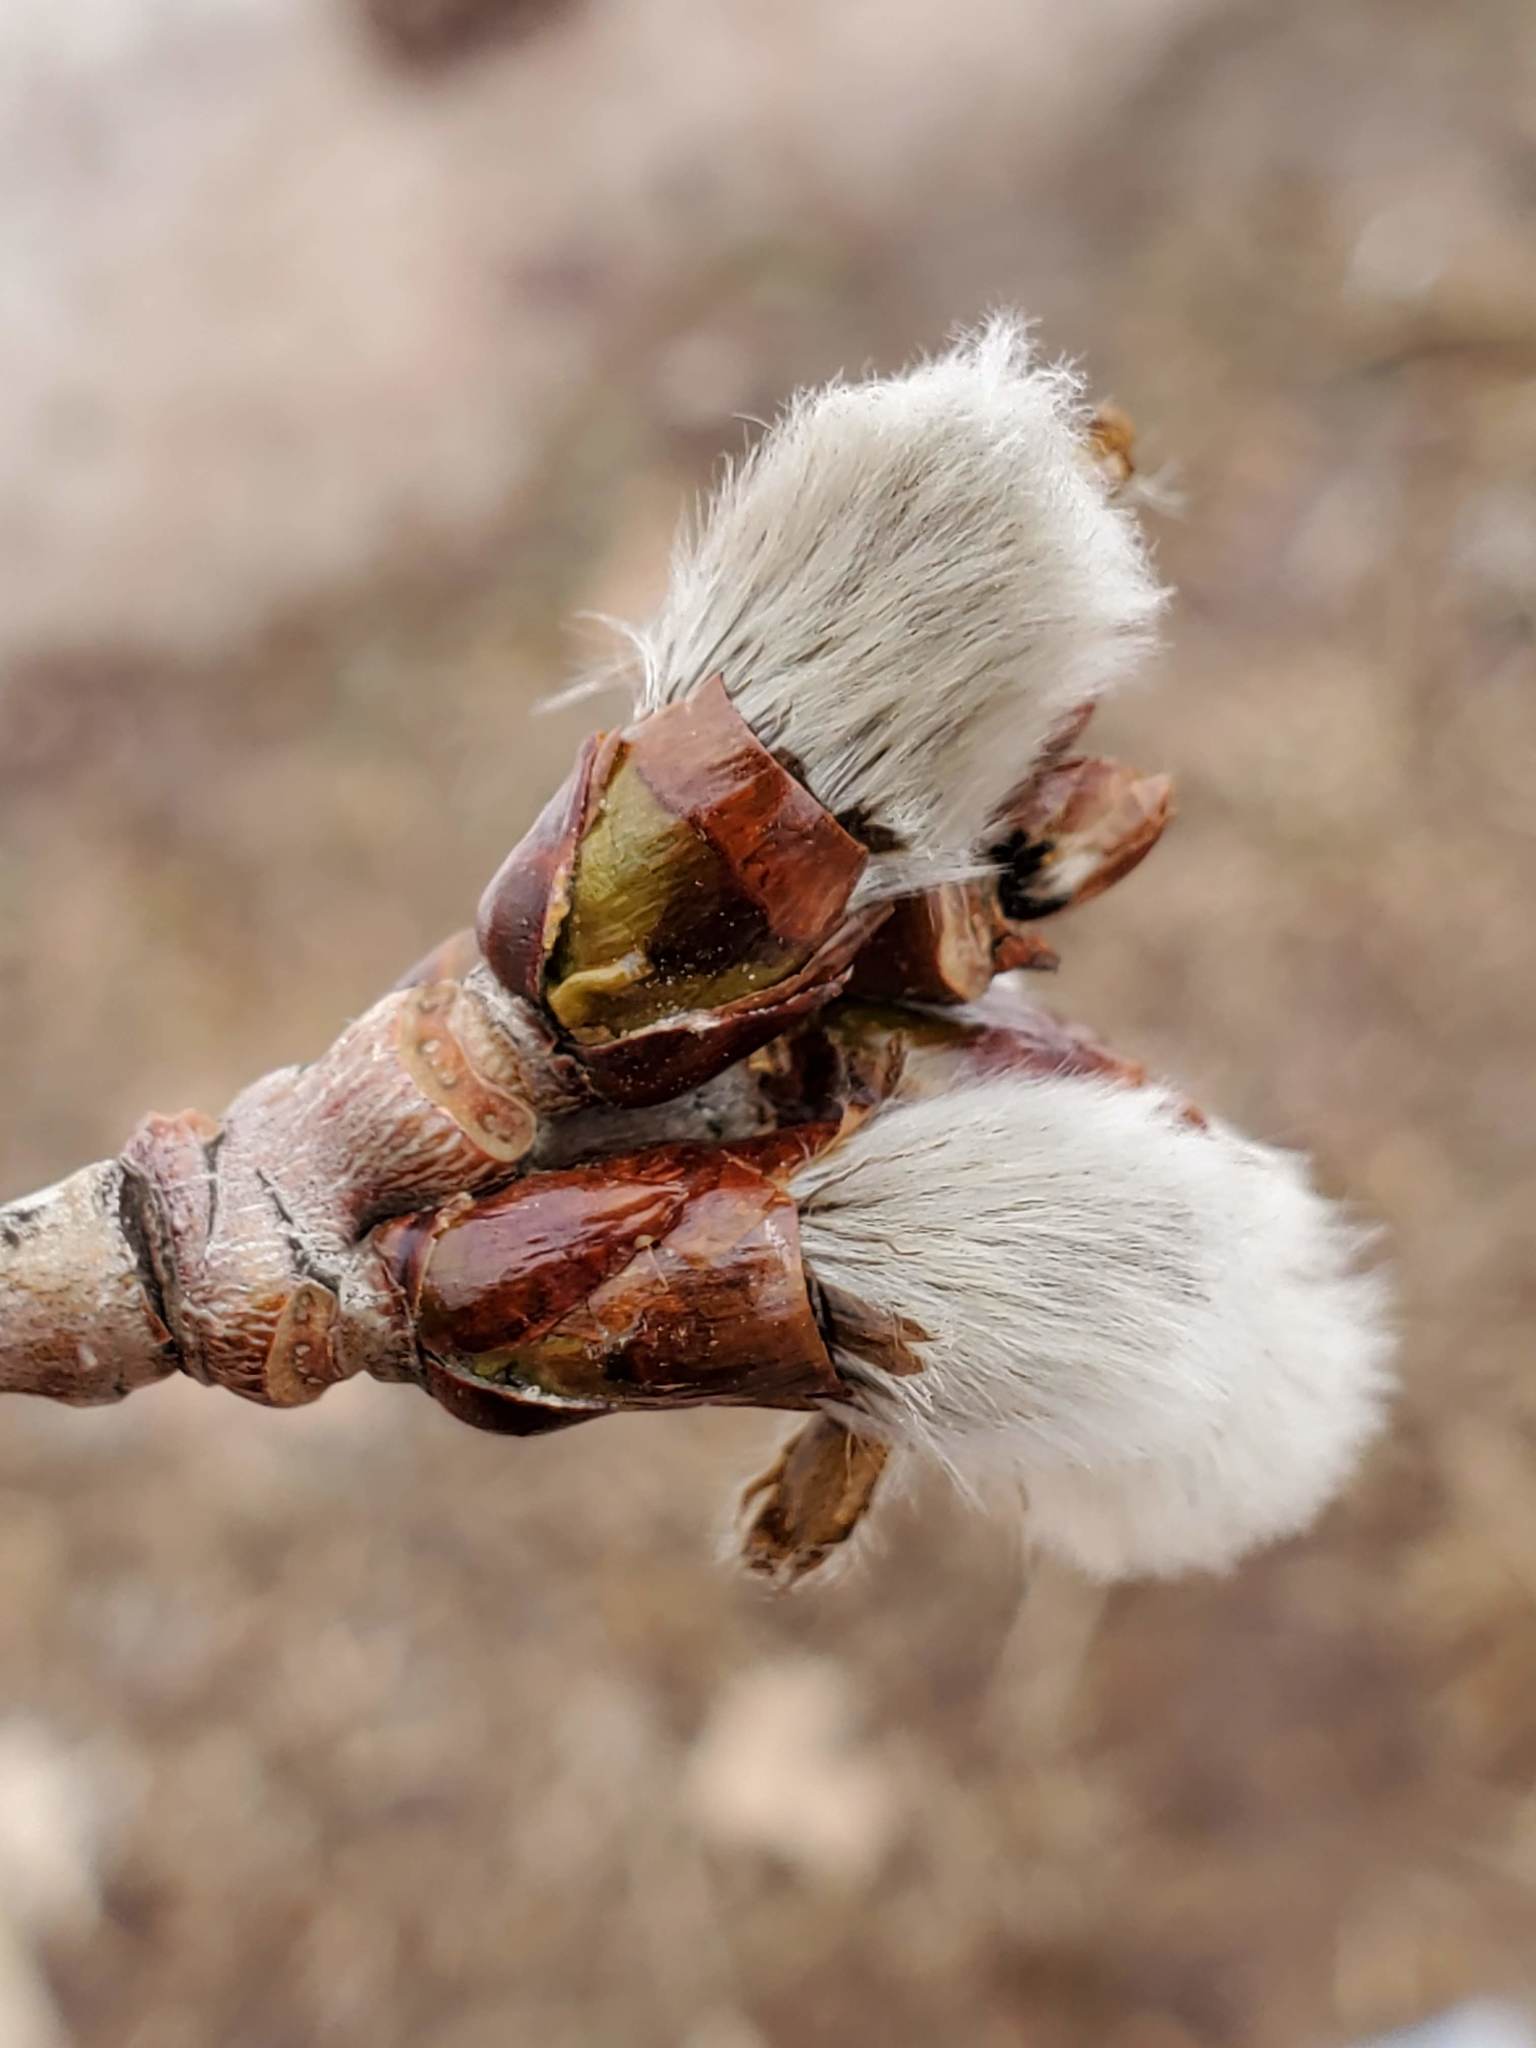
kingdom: Plantae
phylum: Tracheophyta
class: Magnoliopsida
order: Malpighiales
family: Salicaceae
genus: Populus
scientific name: Populus tremuloides
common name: Quaking aspen
